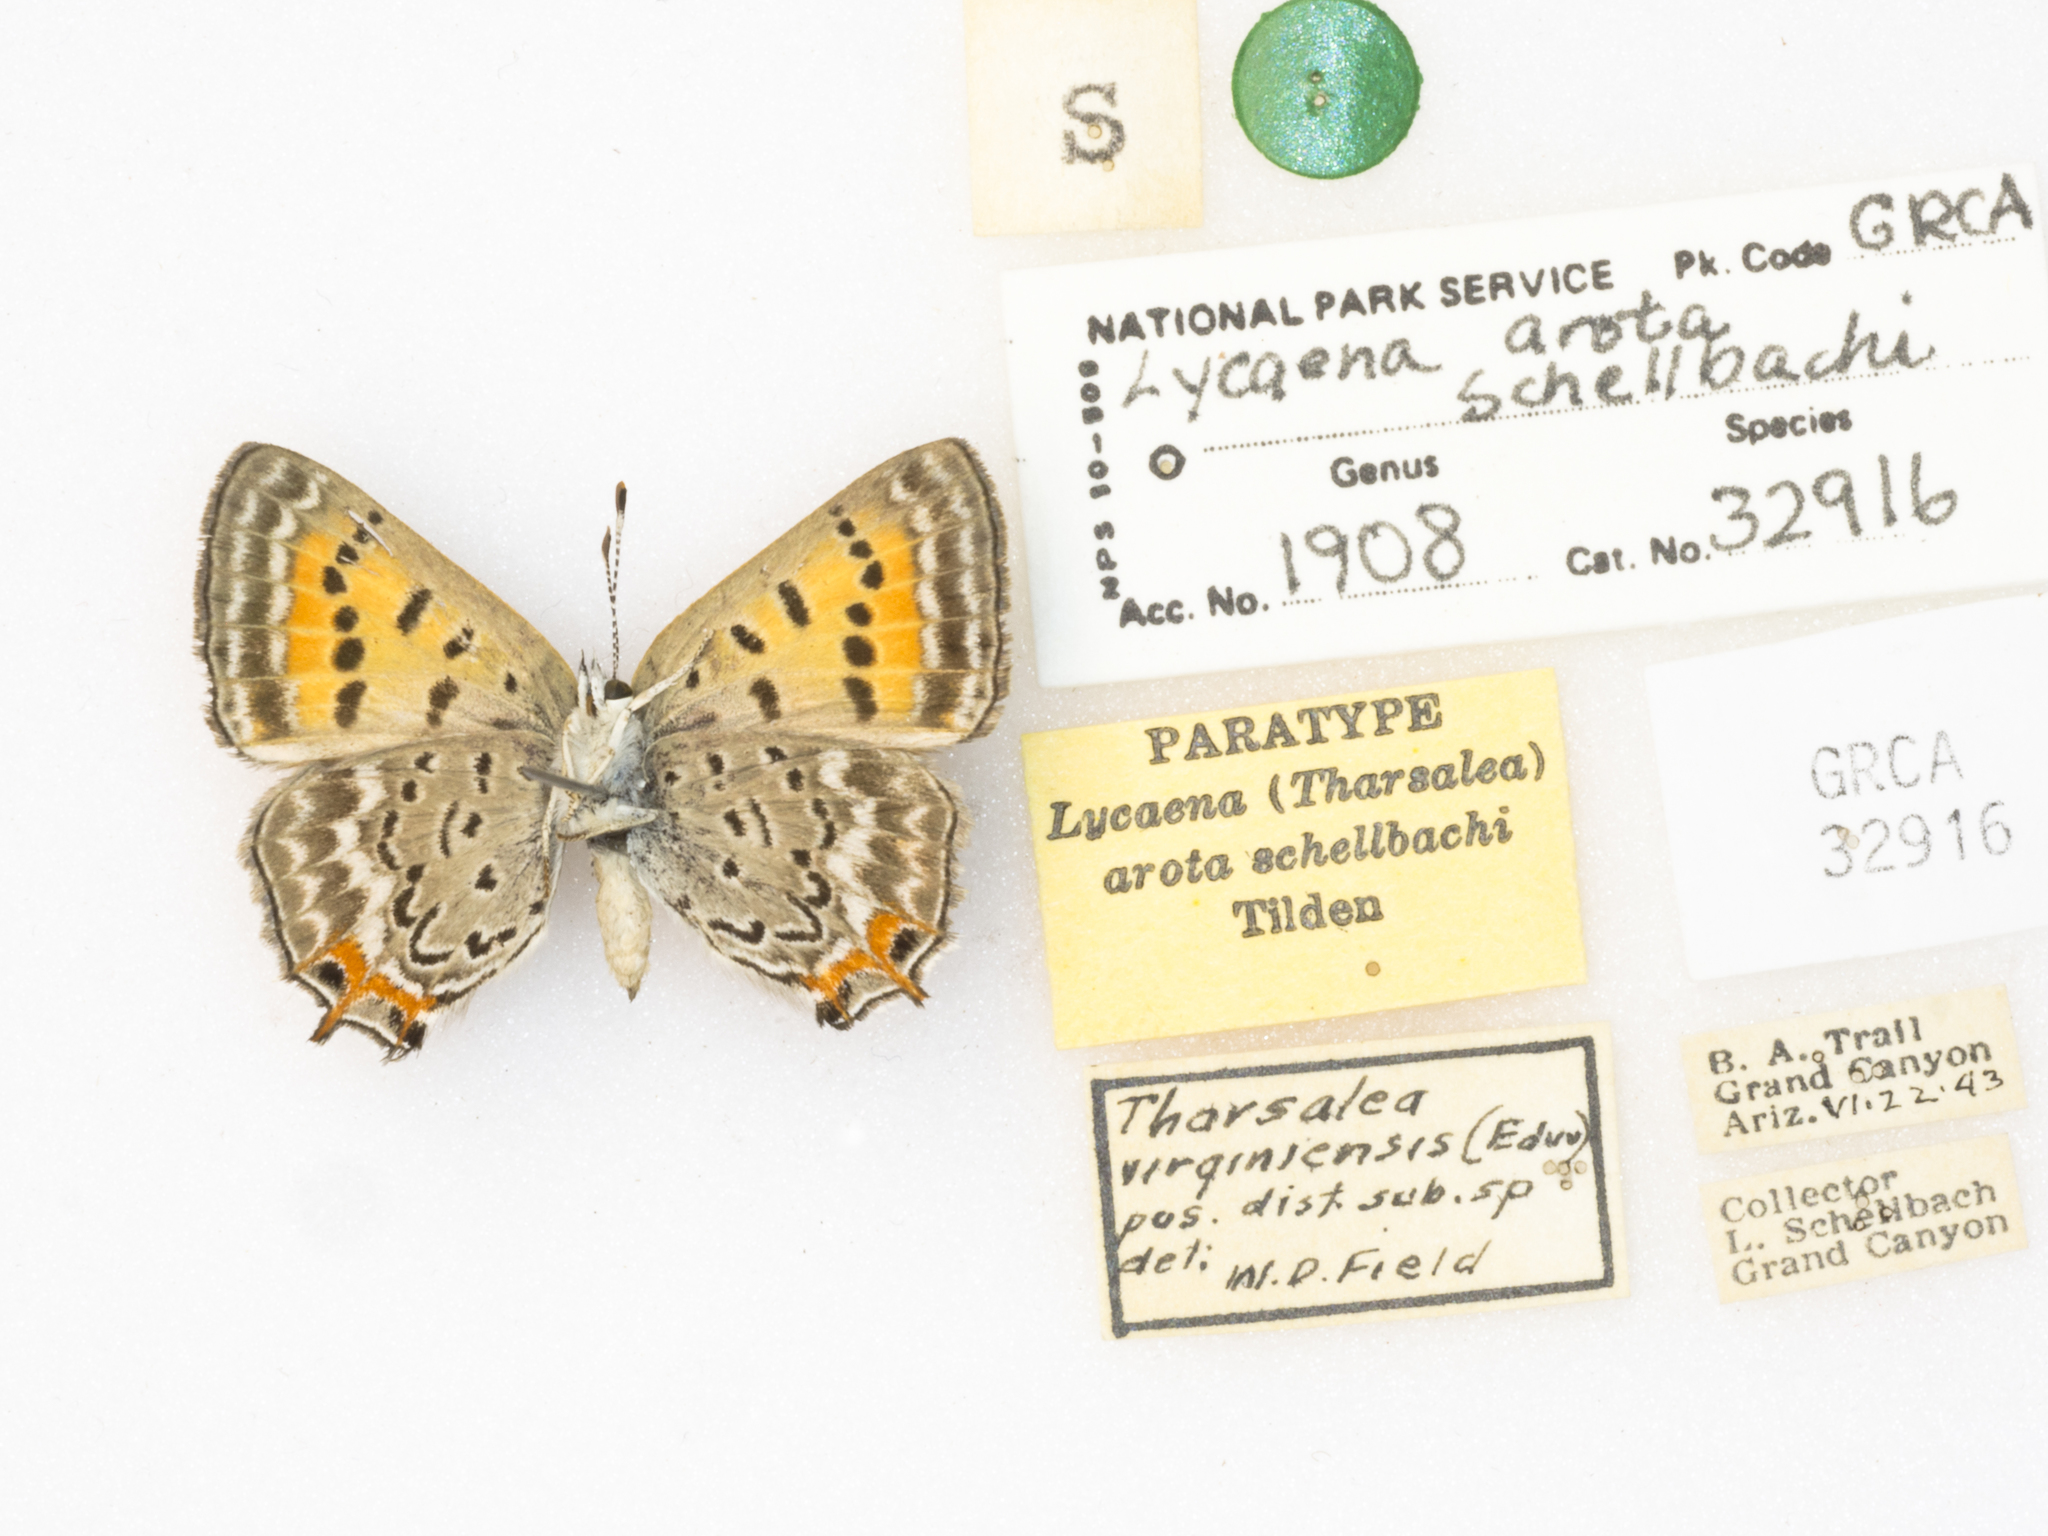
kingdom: Animalia
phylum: Arthropoda
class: Insecta
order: Lepidoptera
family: Lycaenidae
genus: Tharsalea
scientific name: Tharsalea arota
